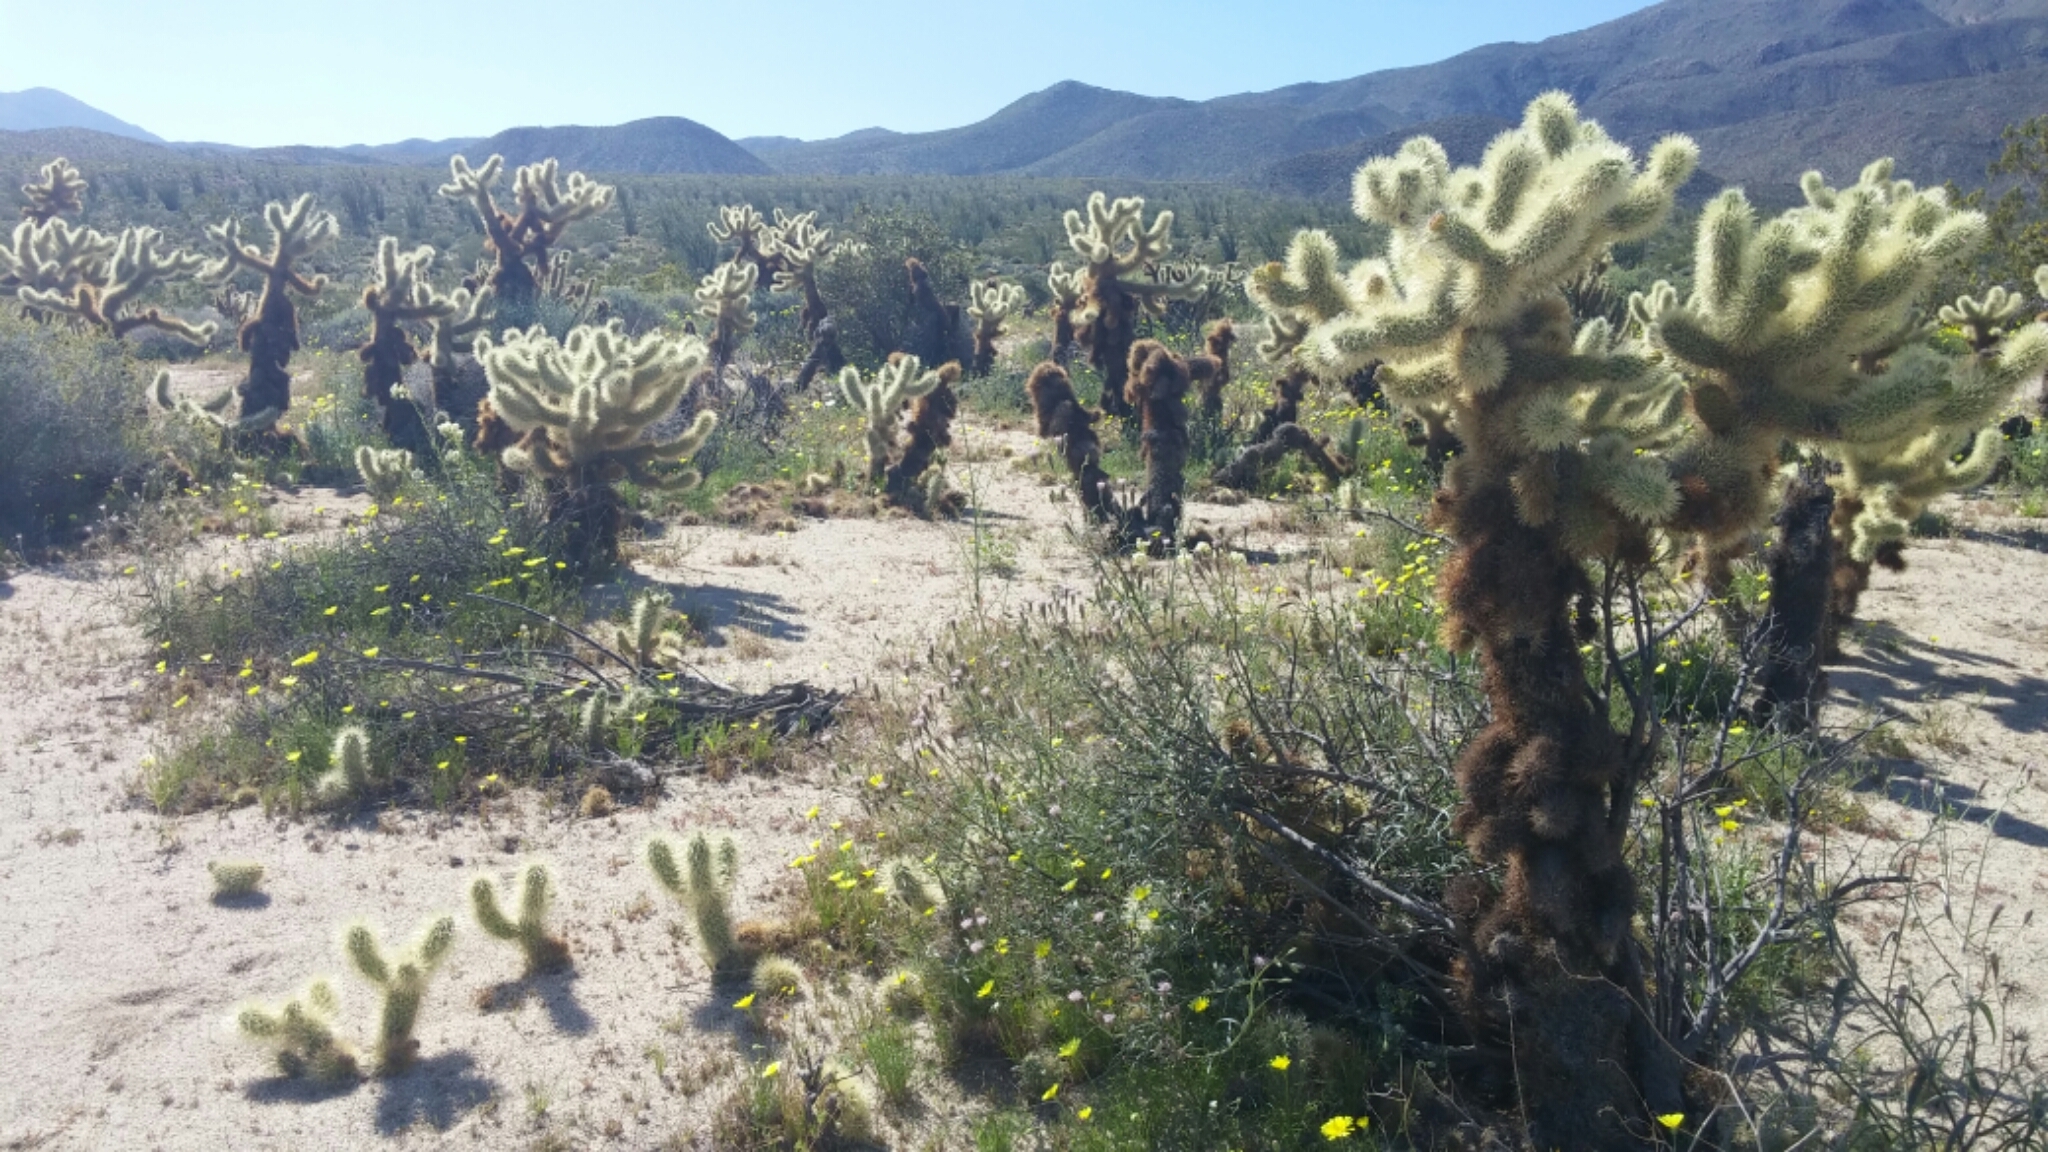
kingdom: Plantae
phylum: Tracheophyta
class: Magnoliopsida
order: Caryophyllales
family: Cactaceae
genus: Cylindropuntia
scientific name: Cylindropuntia fosbergii
